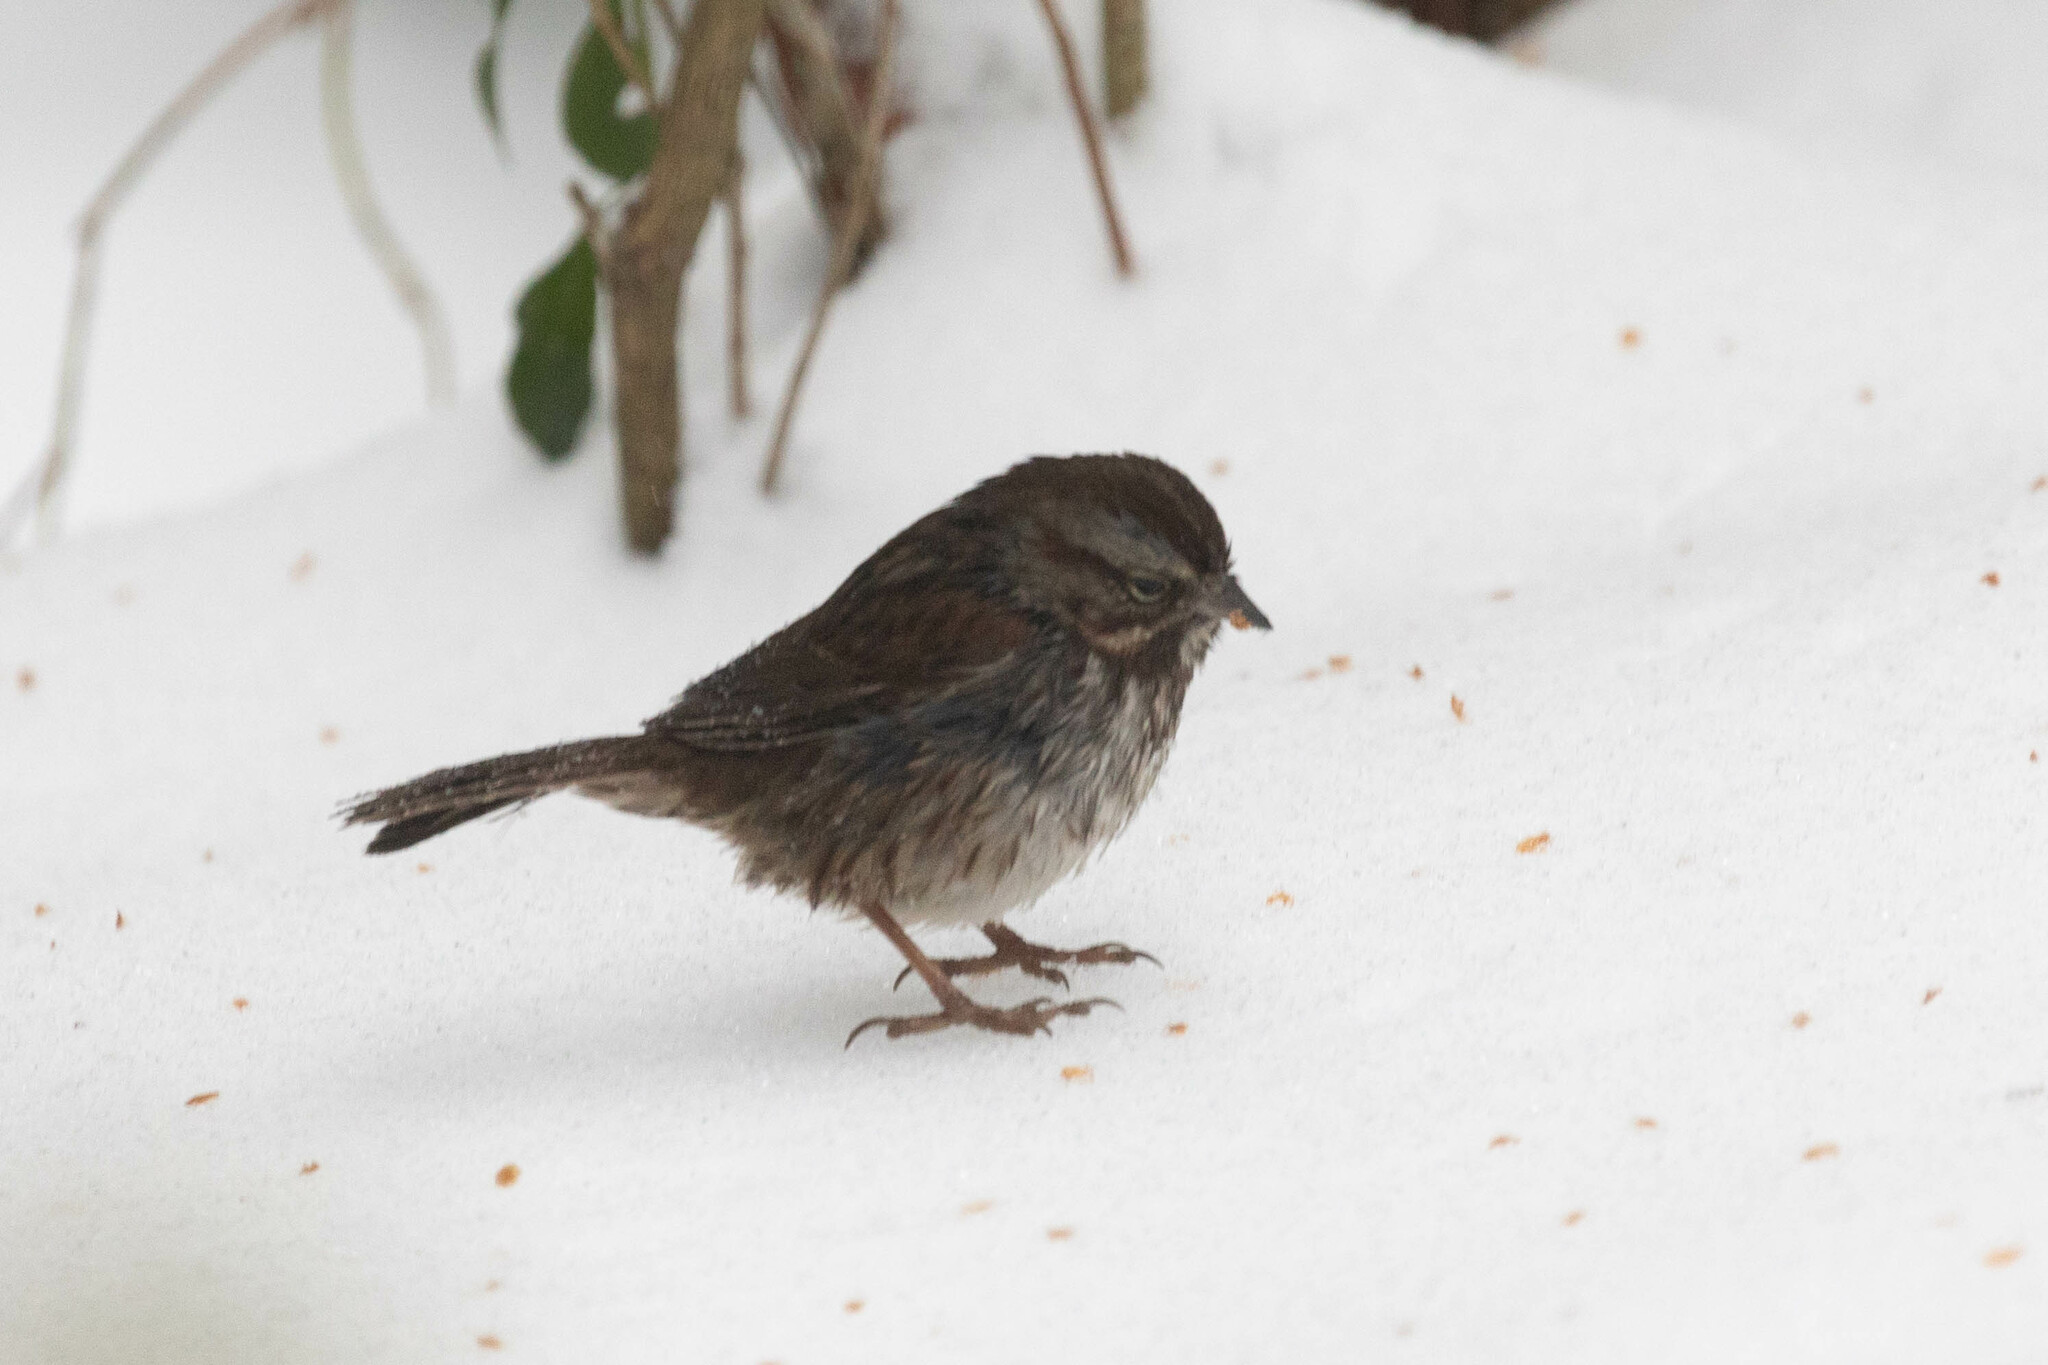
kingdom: Animalia
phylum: Chordata
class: Aves
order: Passeriformes
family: Passerellidae
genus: Melospiza
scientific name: Melospiza melodia
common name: Song sparrow
